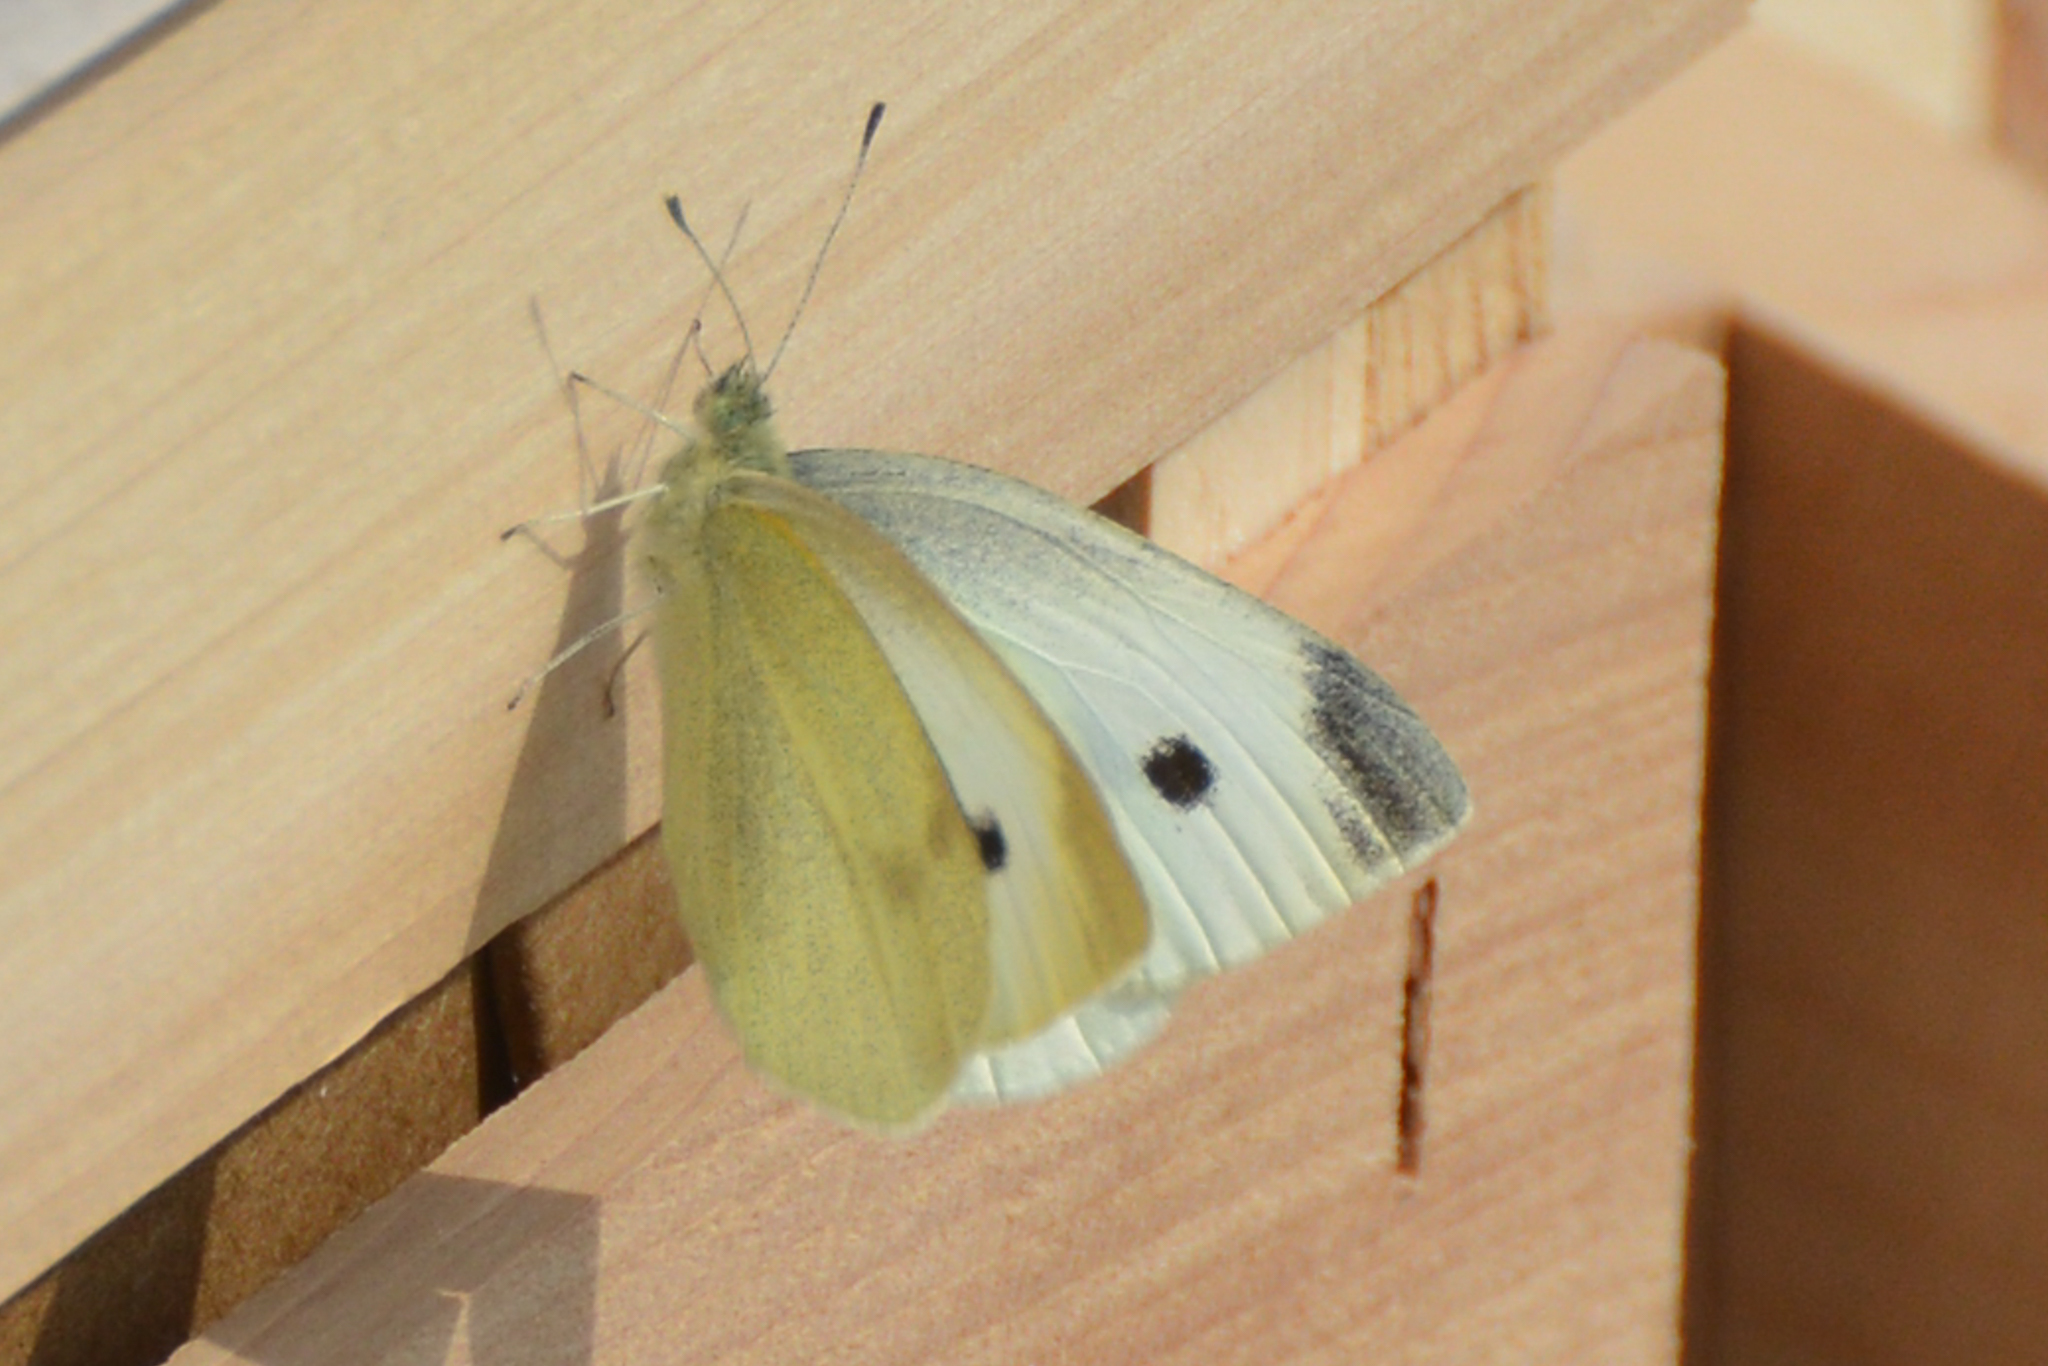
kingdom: Animalia
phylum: Arthropoda
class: Insecta
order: Lepidoptera
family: Pieridae
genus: Pieris
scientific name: Pieris rapae
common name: Small white
